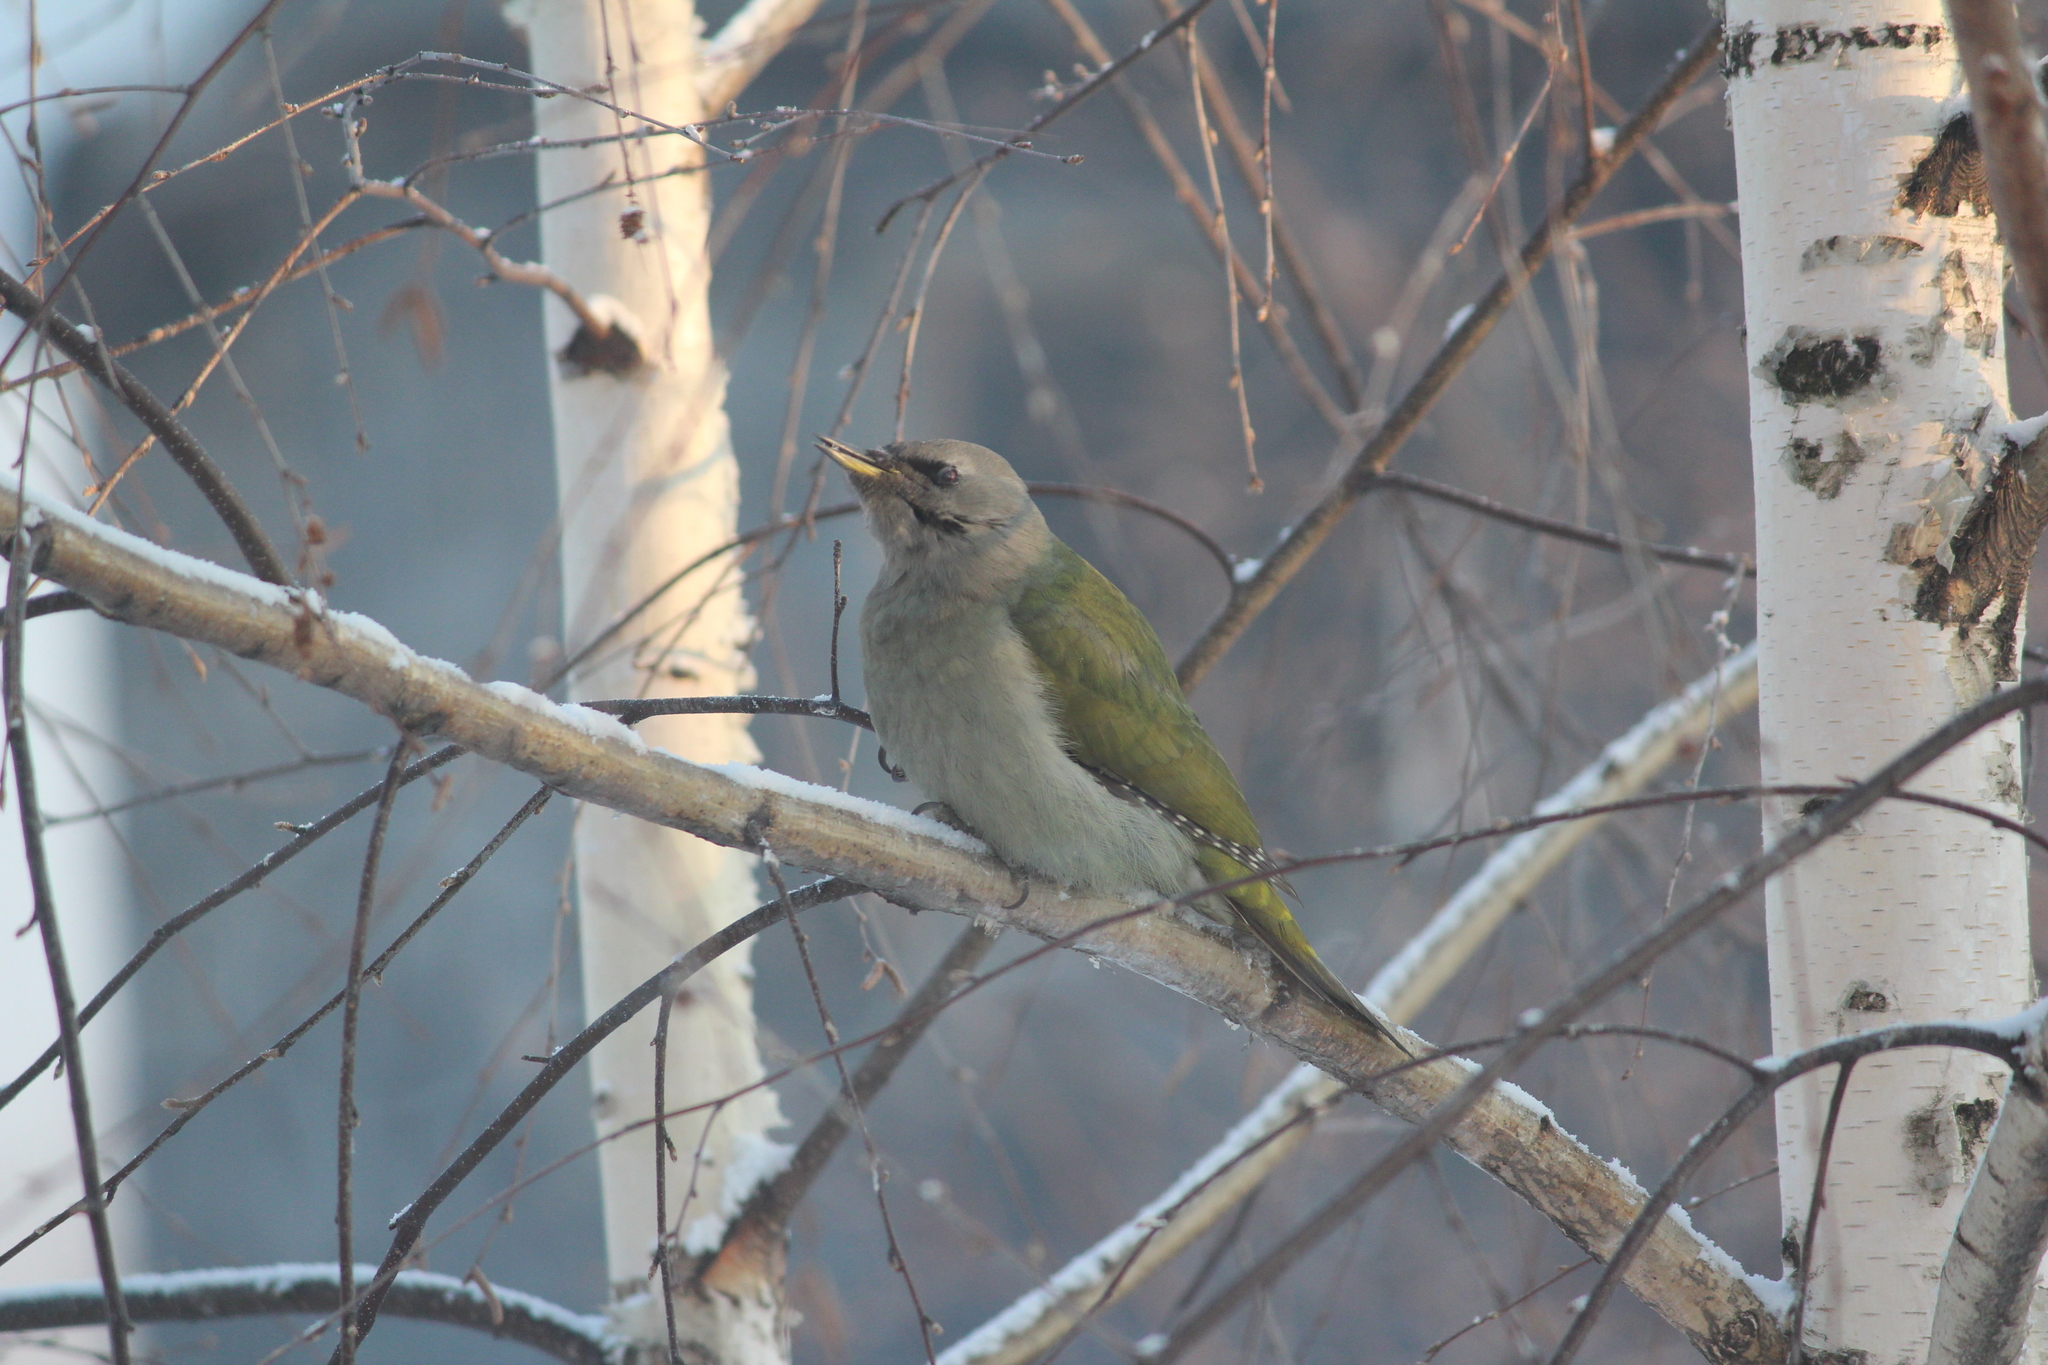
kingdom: Animalia
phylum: Chordata
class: Aves
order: Piciformes
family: Picidae
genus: Picus
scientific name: Picus canus
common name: Grey-headed woodpecker
